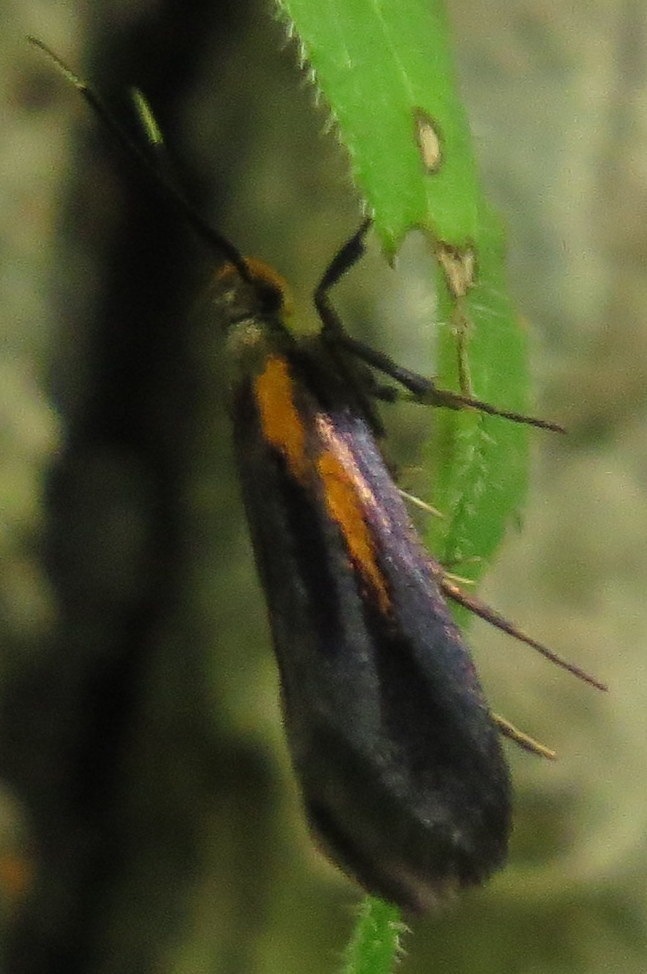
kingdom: Animalia
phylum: Arthropoda
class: Insecta
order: Lepidoptera
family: Oecophoridae
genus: Mathildana
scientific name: Mathildana newmanella
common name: Newman's mathildana moth
